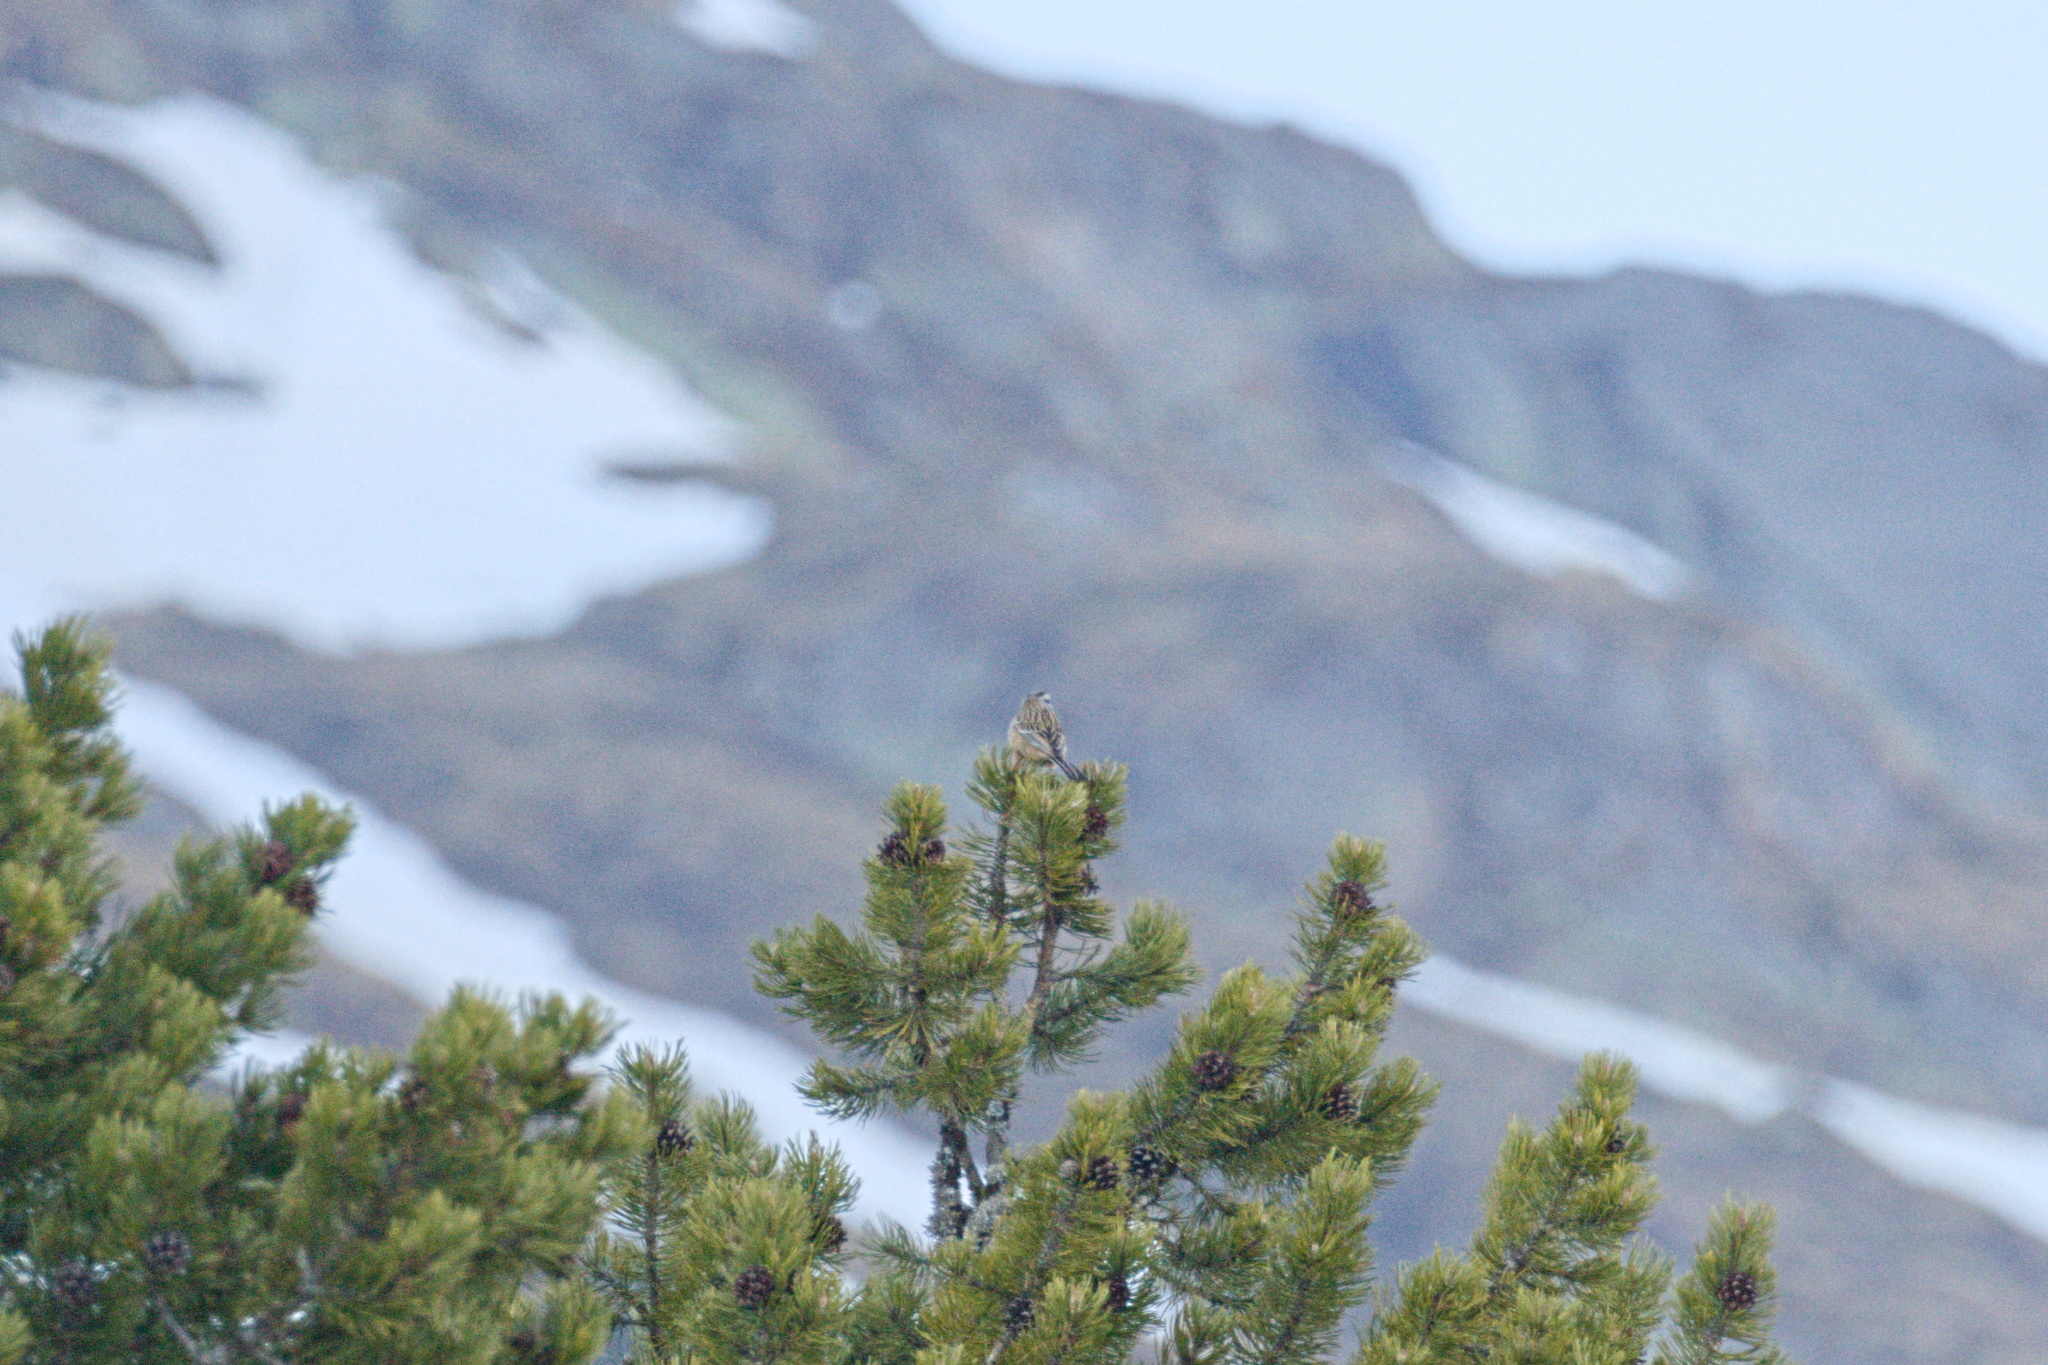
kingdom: Animalia
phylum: Chordata
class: Aves
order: Passeriformes
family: Emberizidae
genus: Emberiza
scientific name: Emberiza cia
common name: Rock bunting
